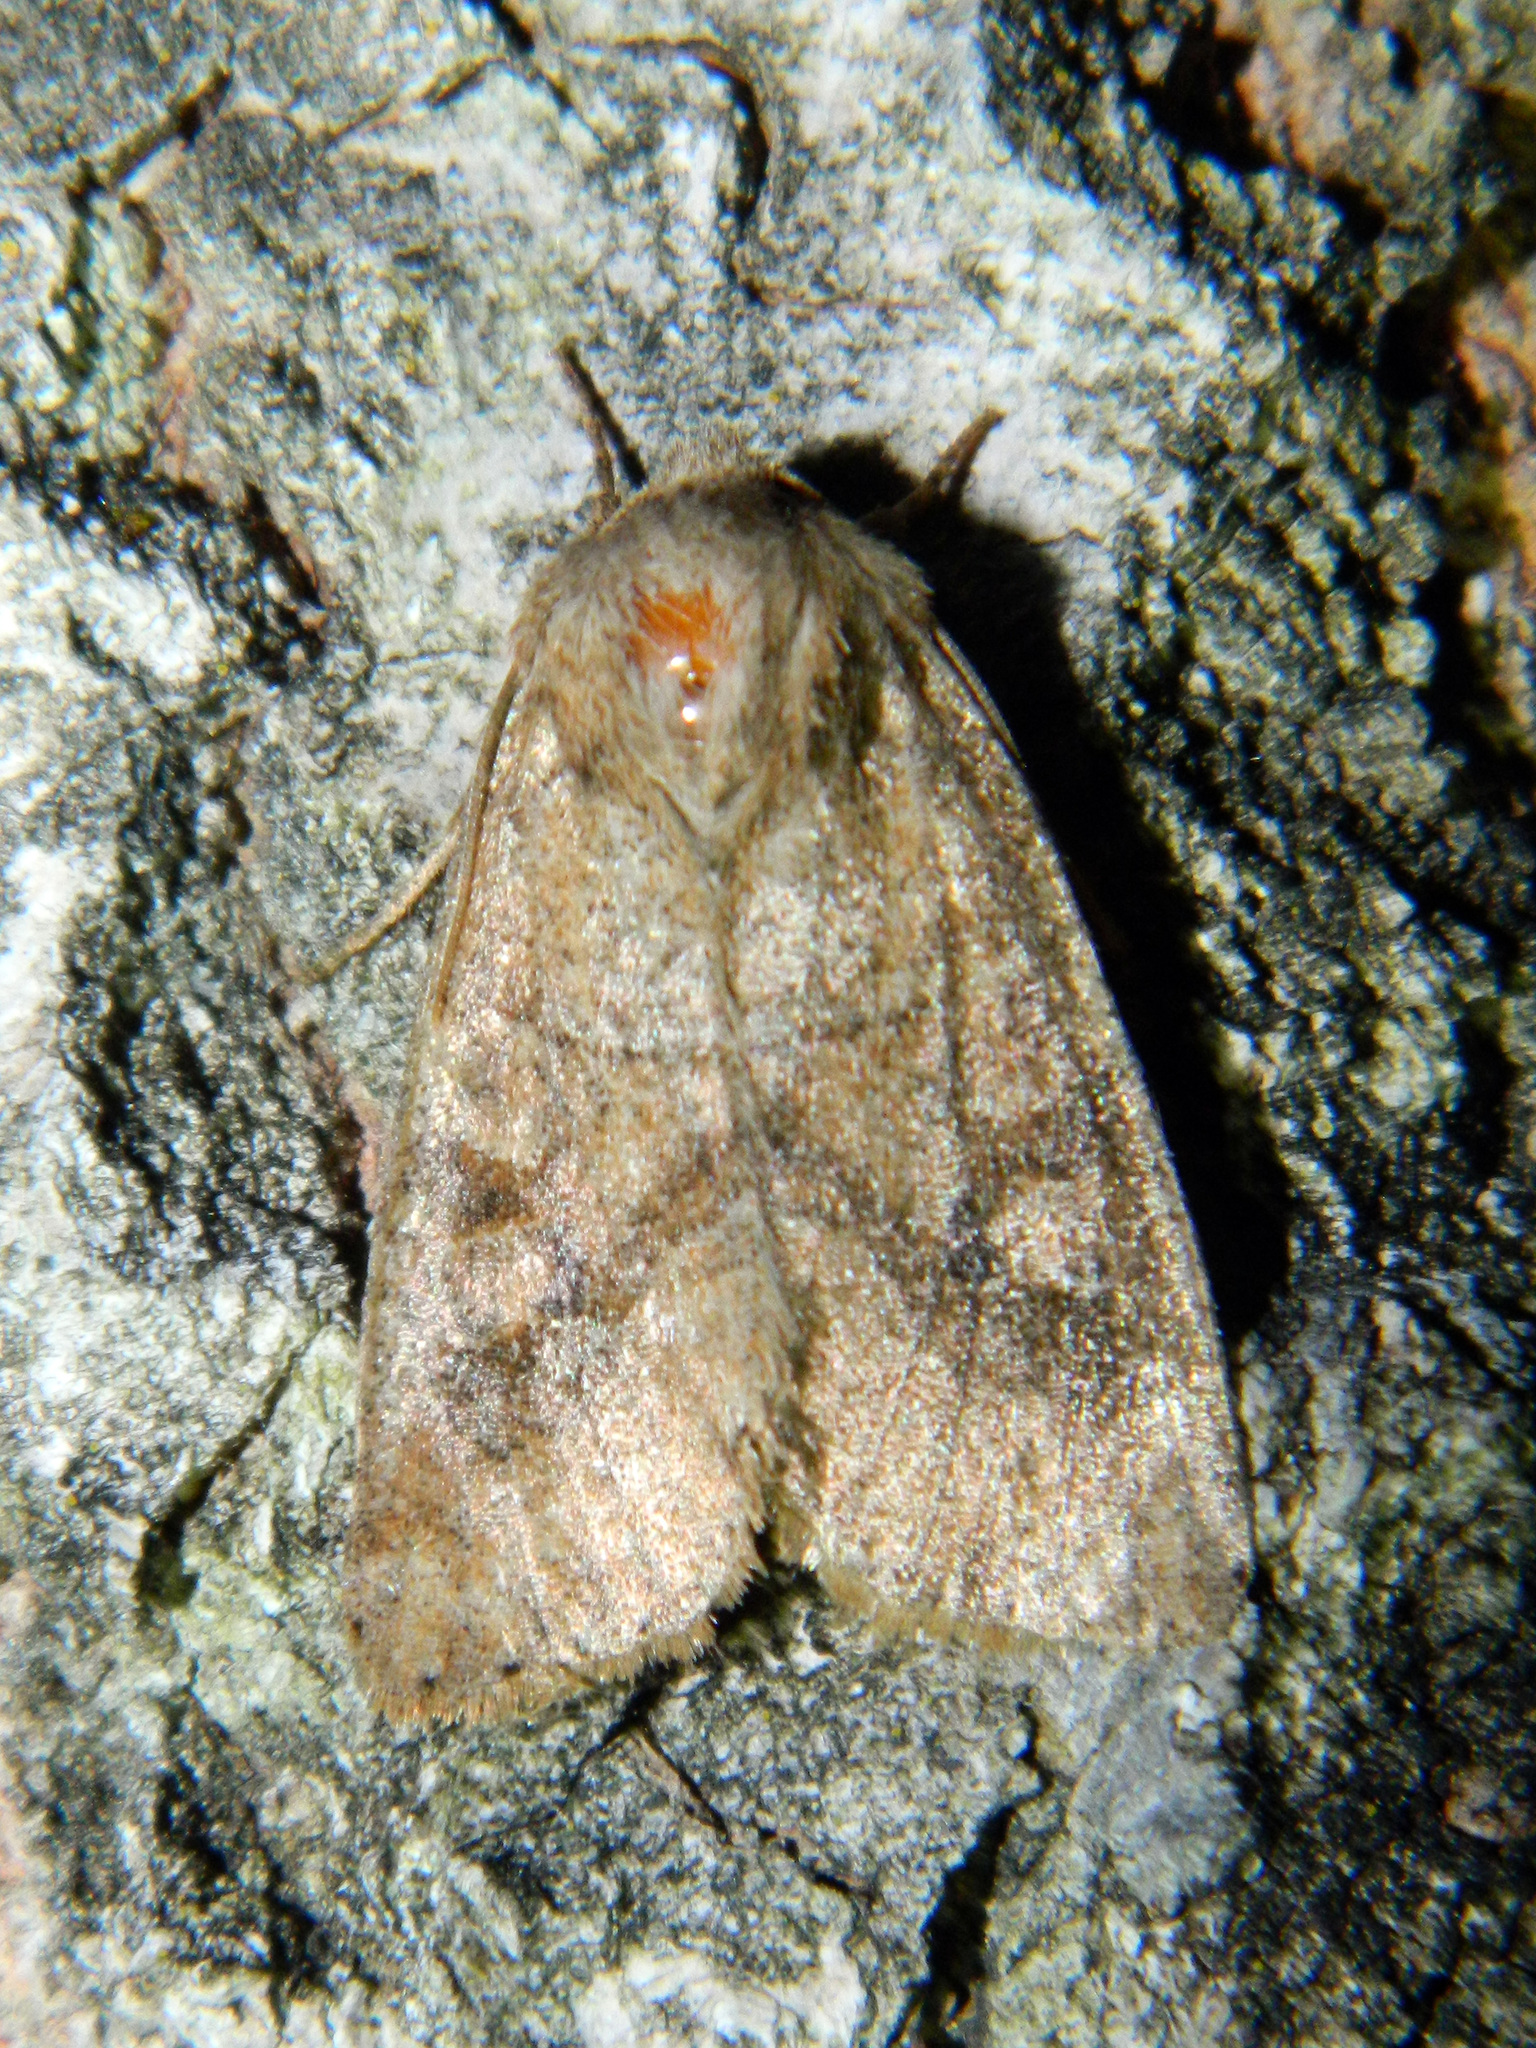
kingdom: Animalia
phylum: Arthropoda
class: Insecta
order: Lepidoptera
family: Noctuidae
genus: Crocigrapha
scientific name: Crocigrapha normani
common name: Norman's quaker
